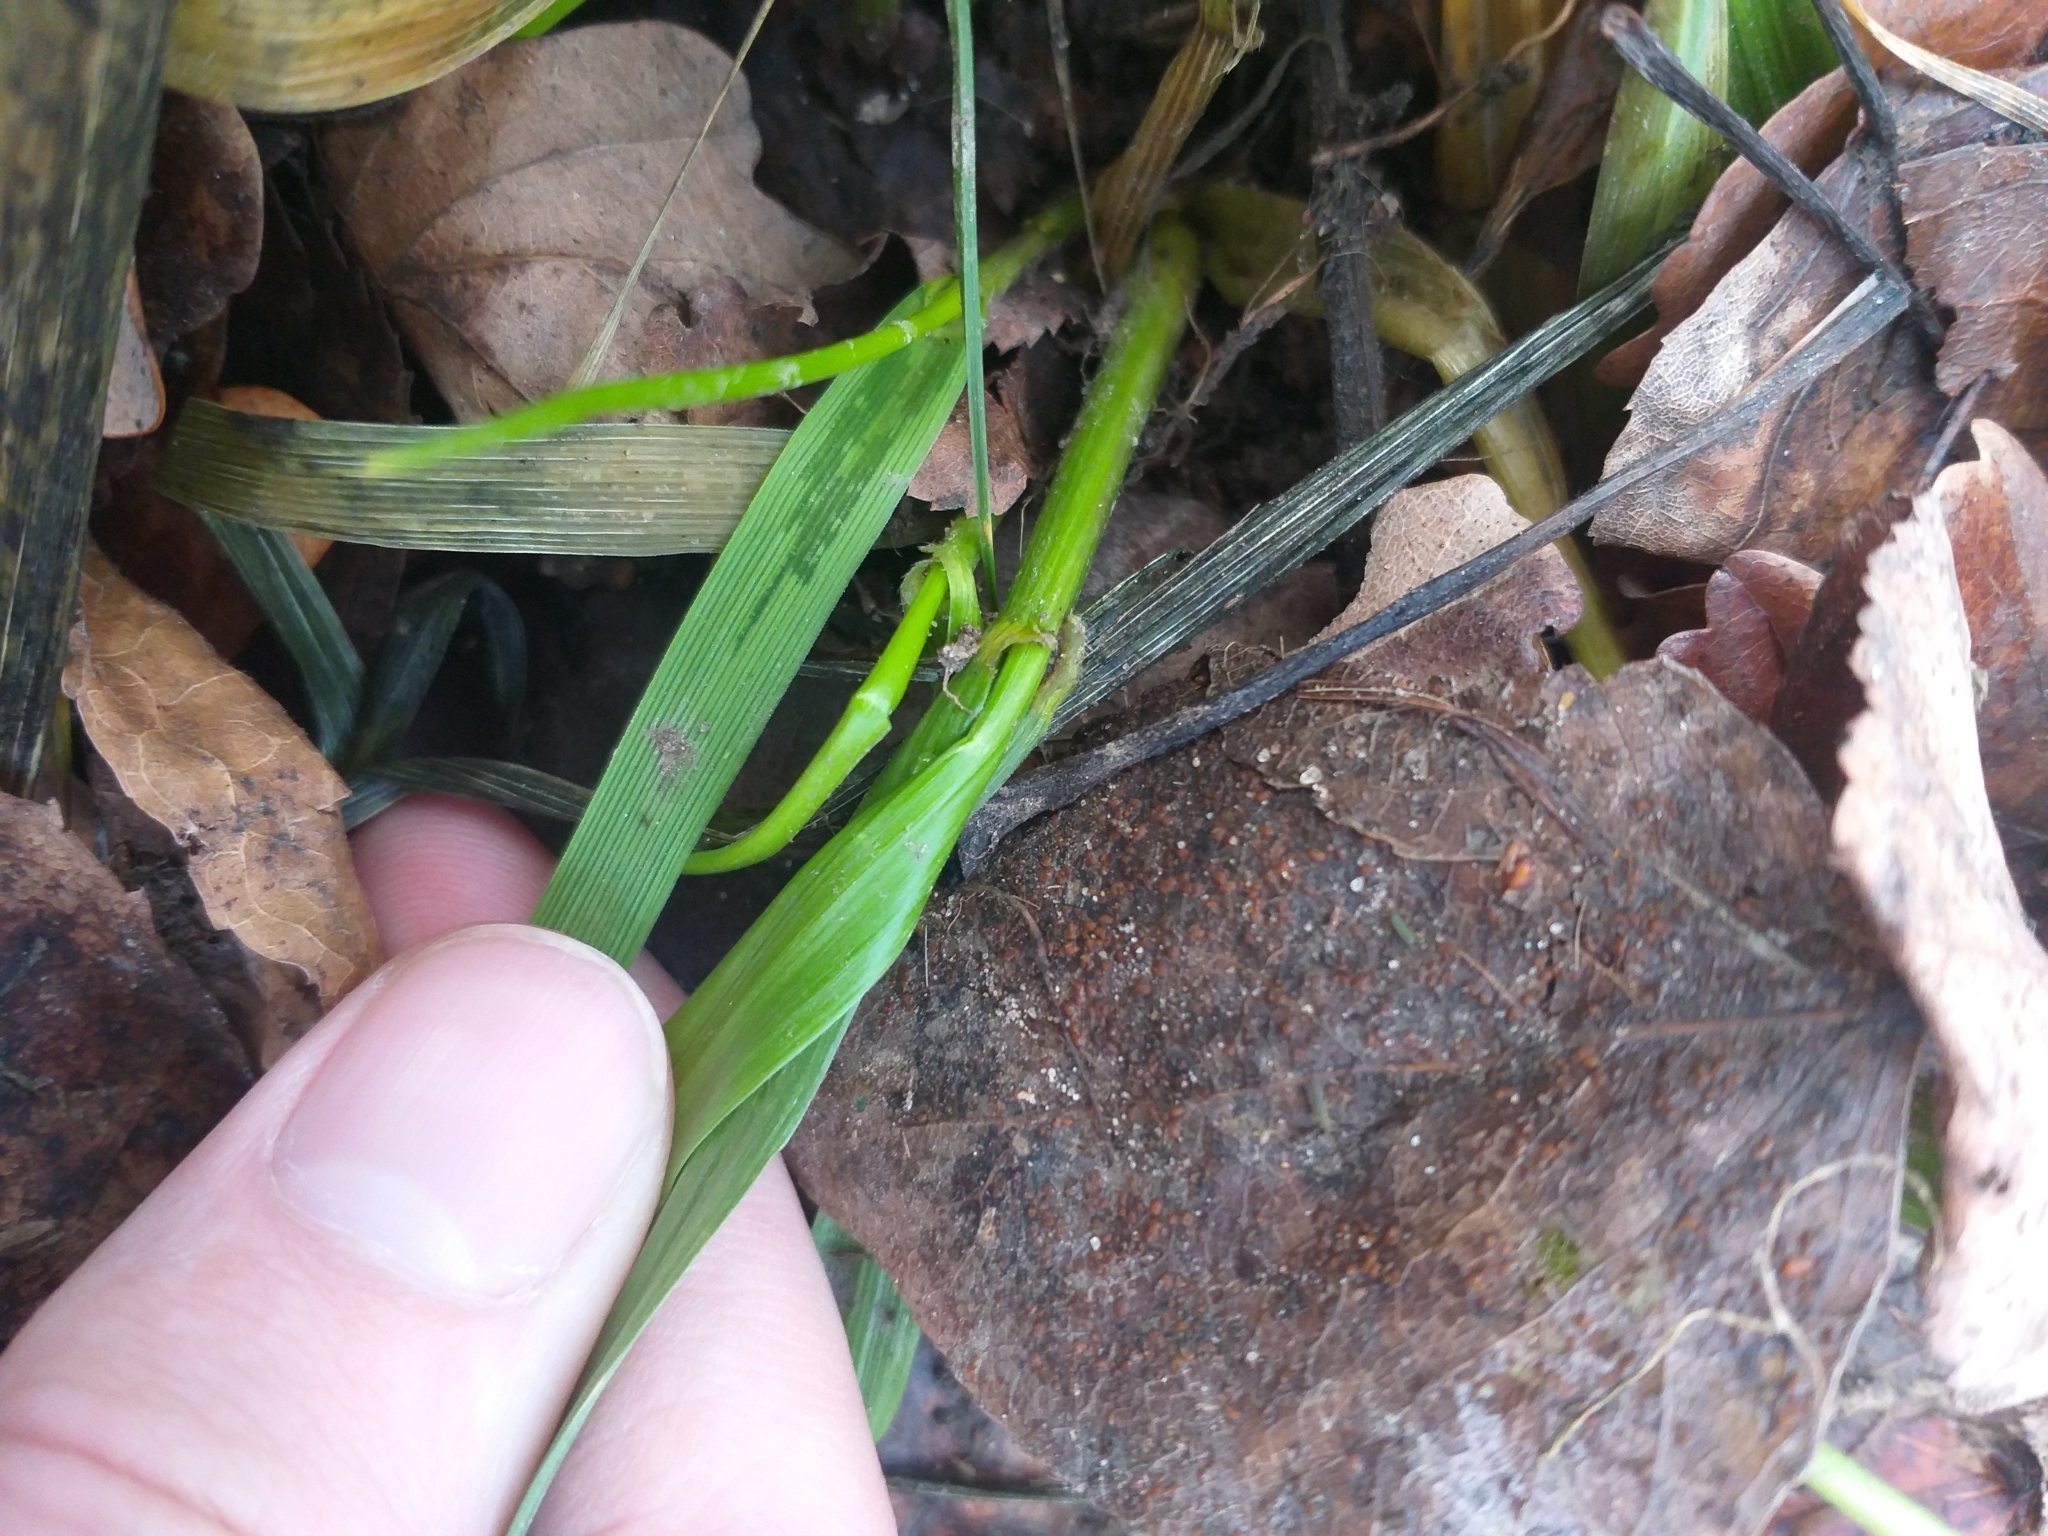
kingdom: Plantae
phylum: Tracheophyta
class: Liliopsida
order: Poales
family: Poaceae
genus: Lolium
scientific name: Lolium giganteum
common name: Giant fescue
